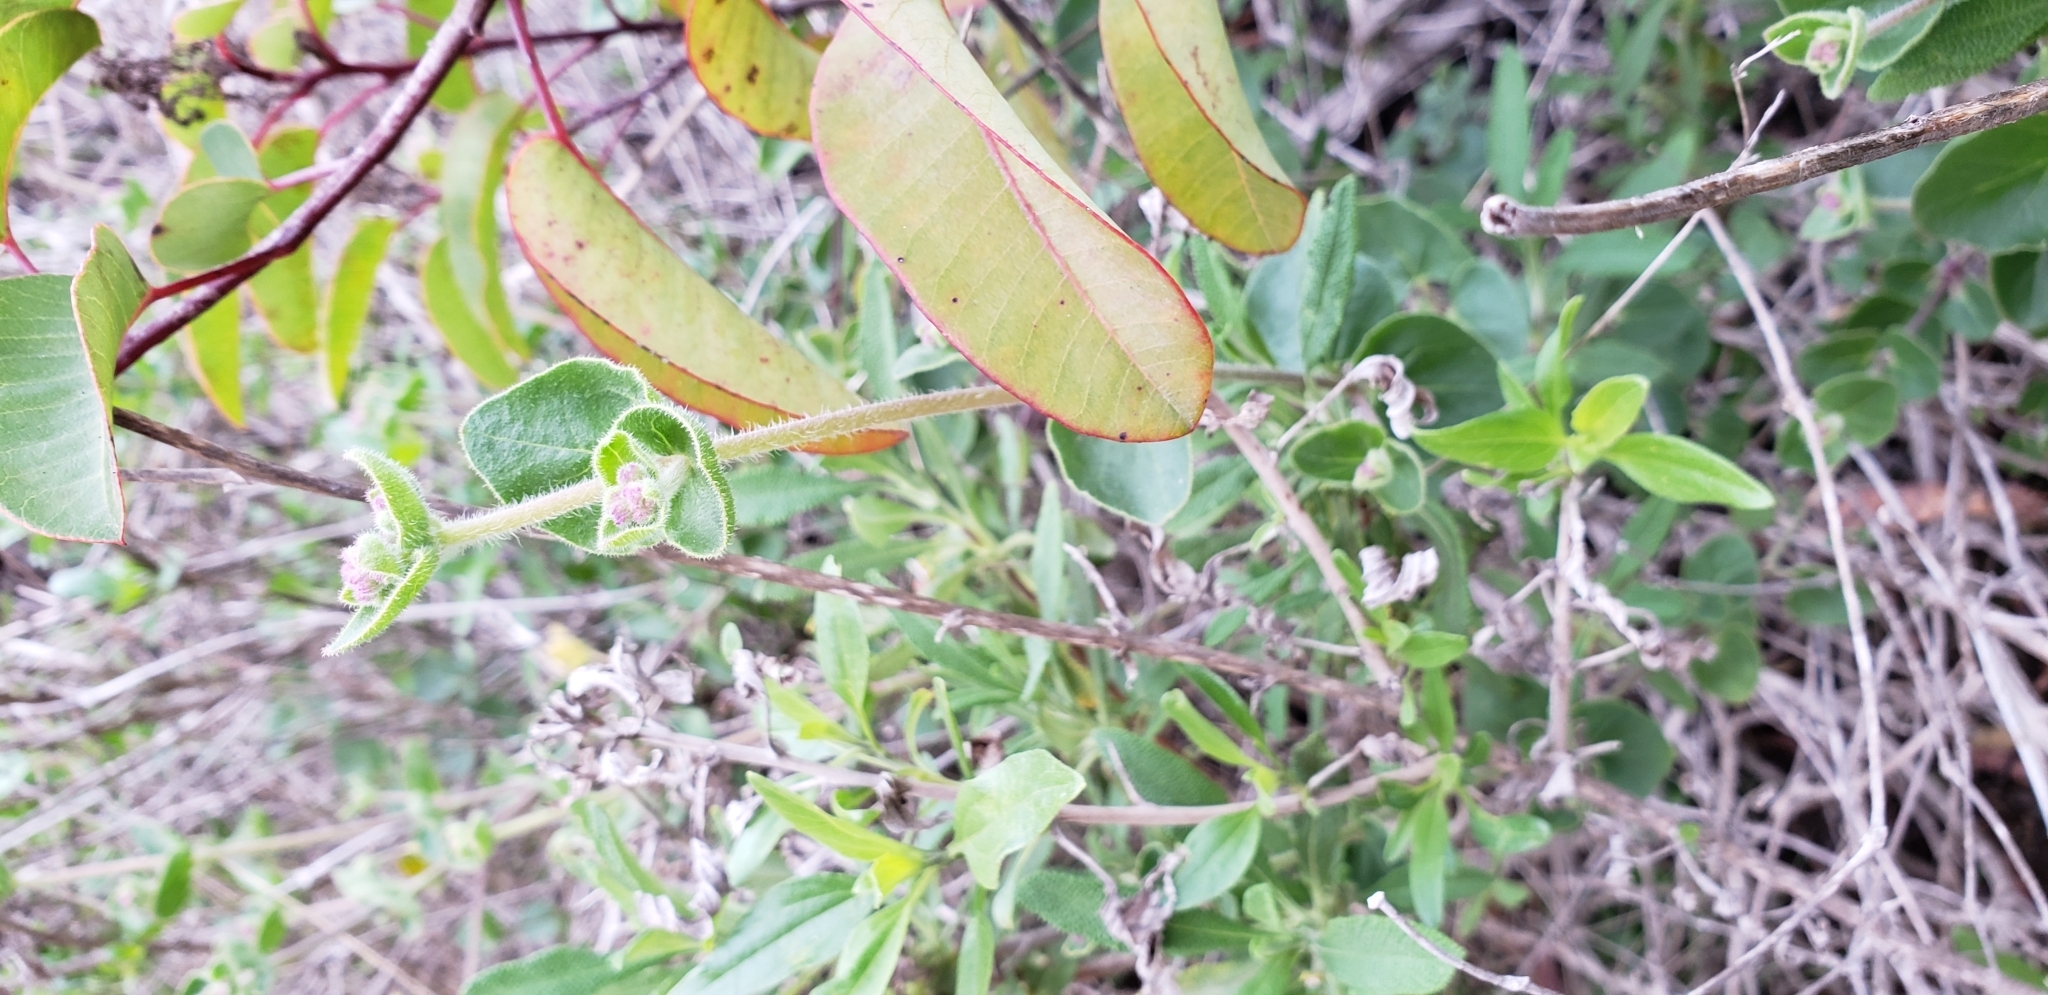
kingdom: Plantae
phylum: Tracheophyta
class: Magnoliopsida
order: Caryophyllales
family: Nyctaginaceae
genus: Mirabilis
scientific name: Mirabilis laevis
